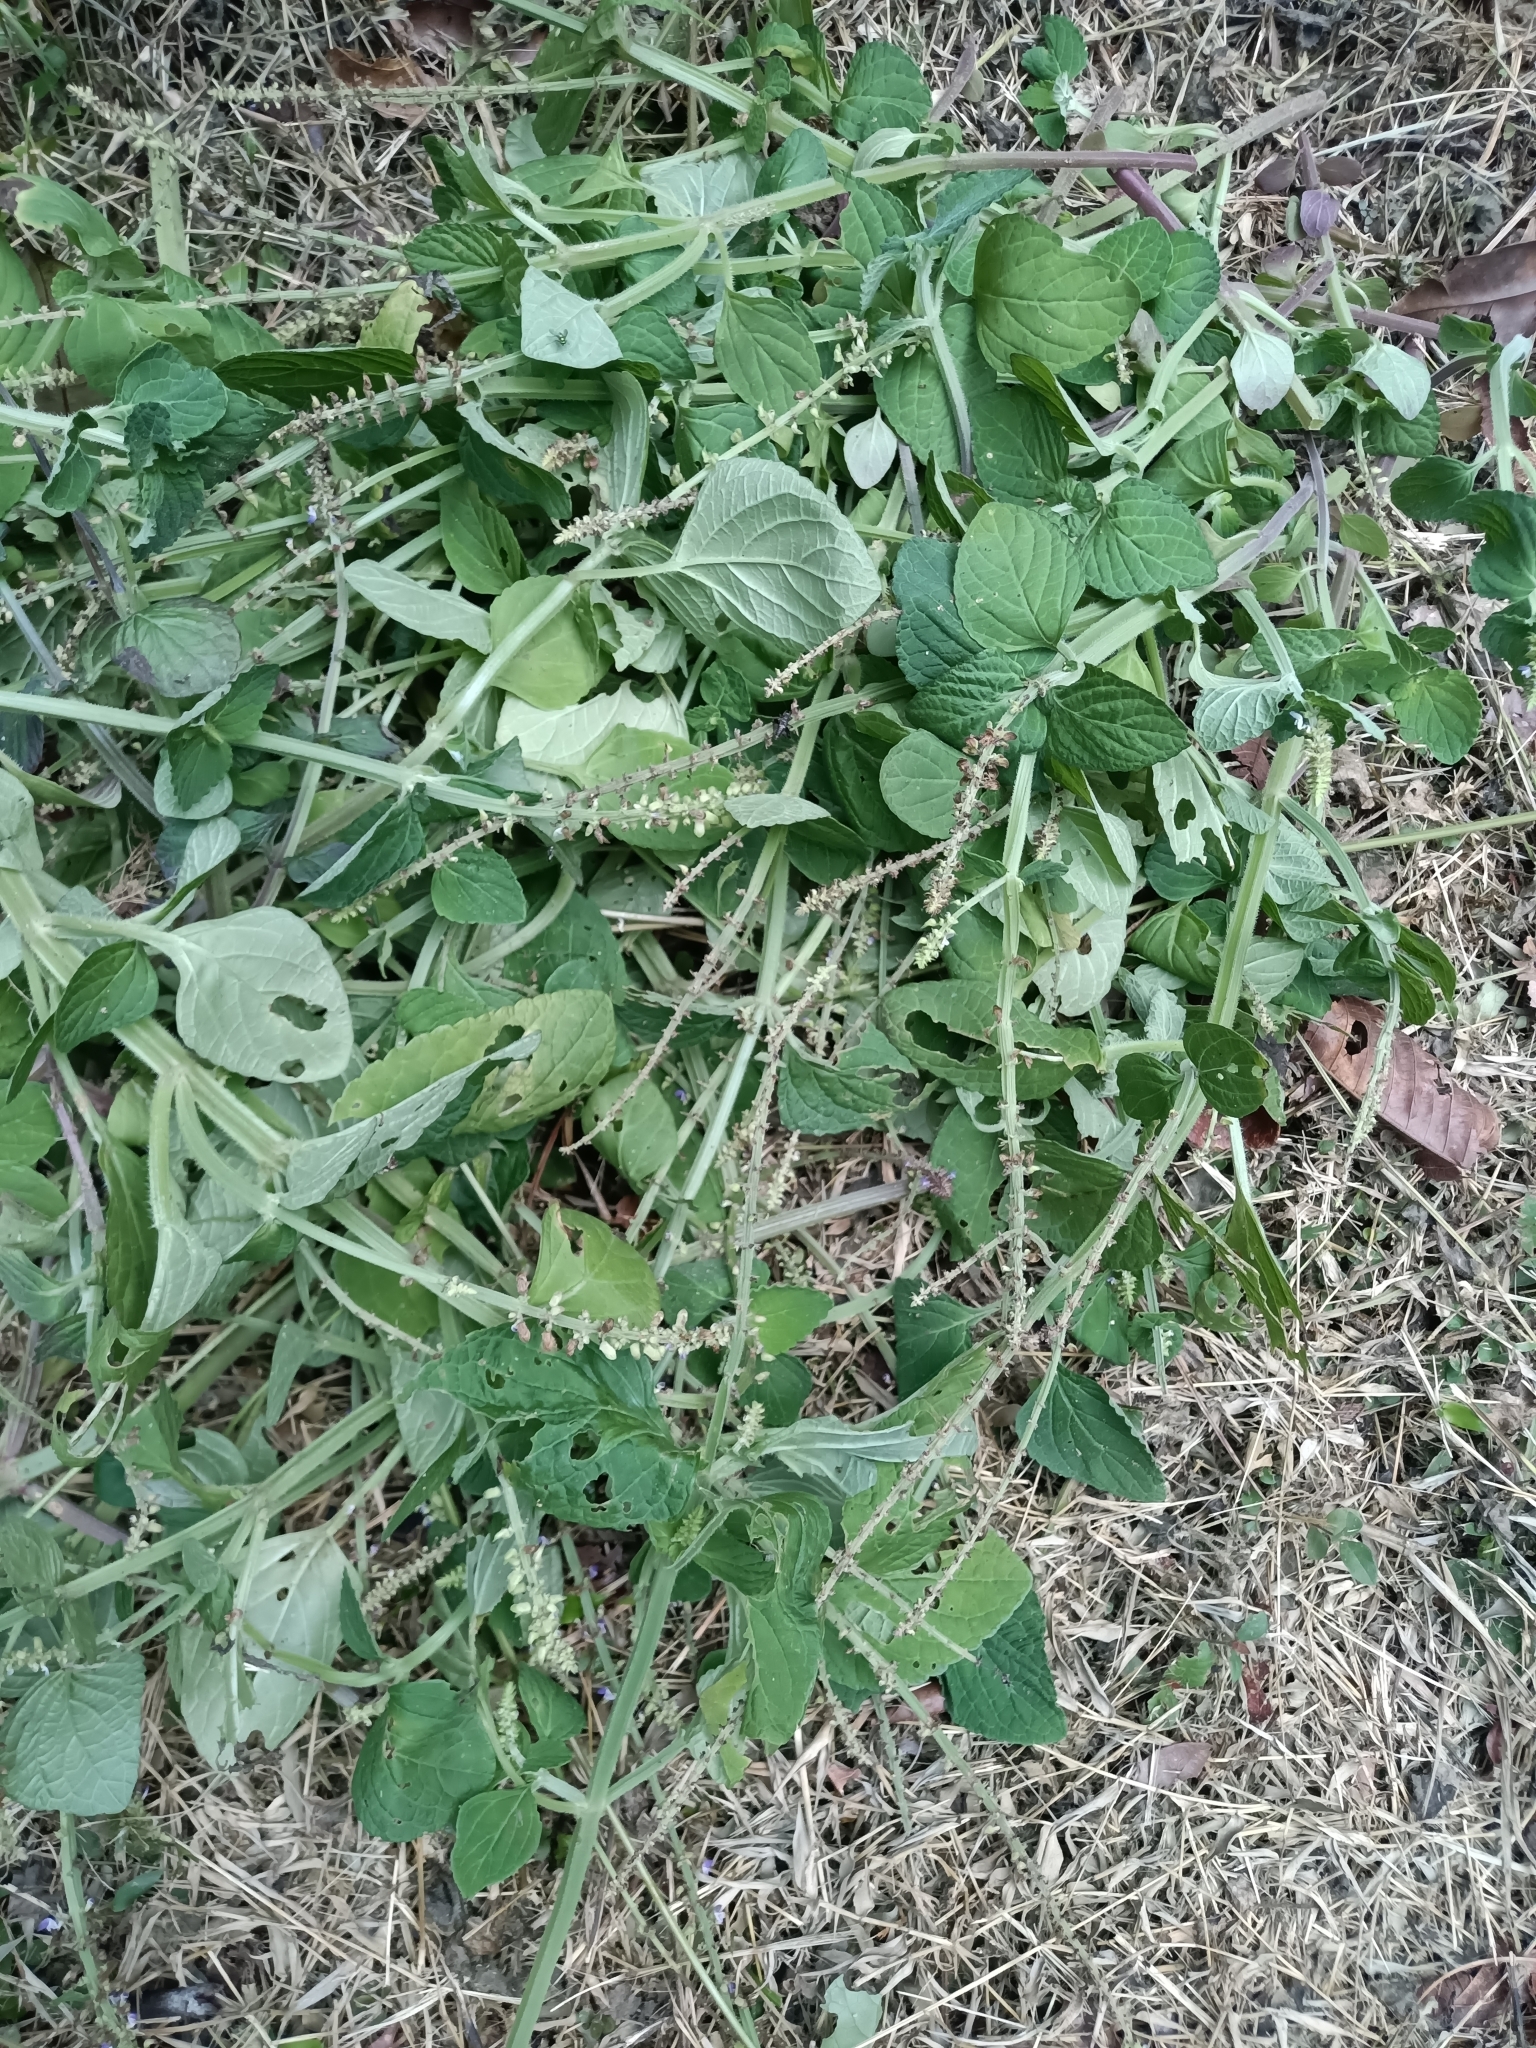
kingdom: Plantae
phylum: Tracheophyta
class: Magnoliopsida
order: Lamiales
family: Lamiaceae
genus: Coleus
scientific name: Coleus monostachyus
